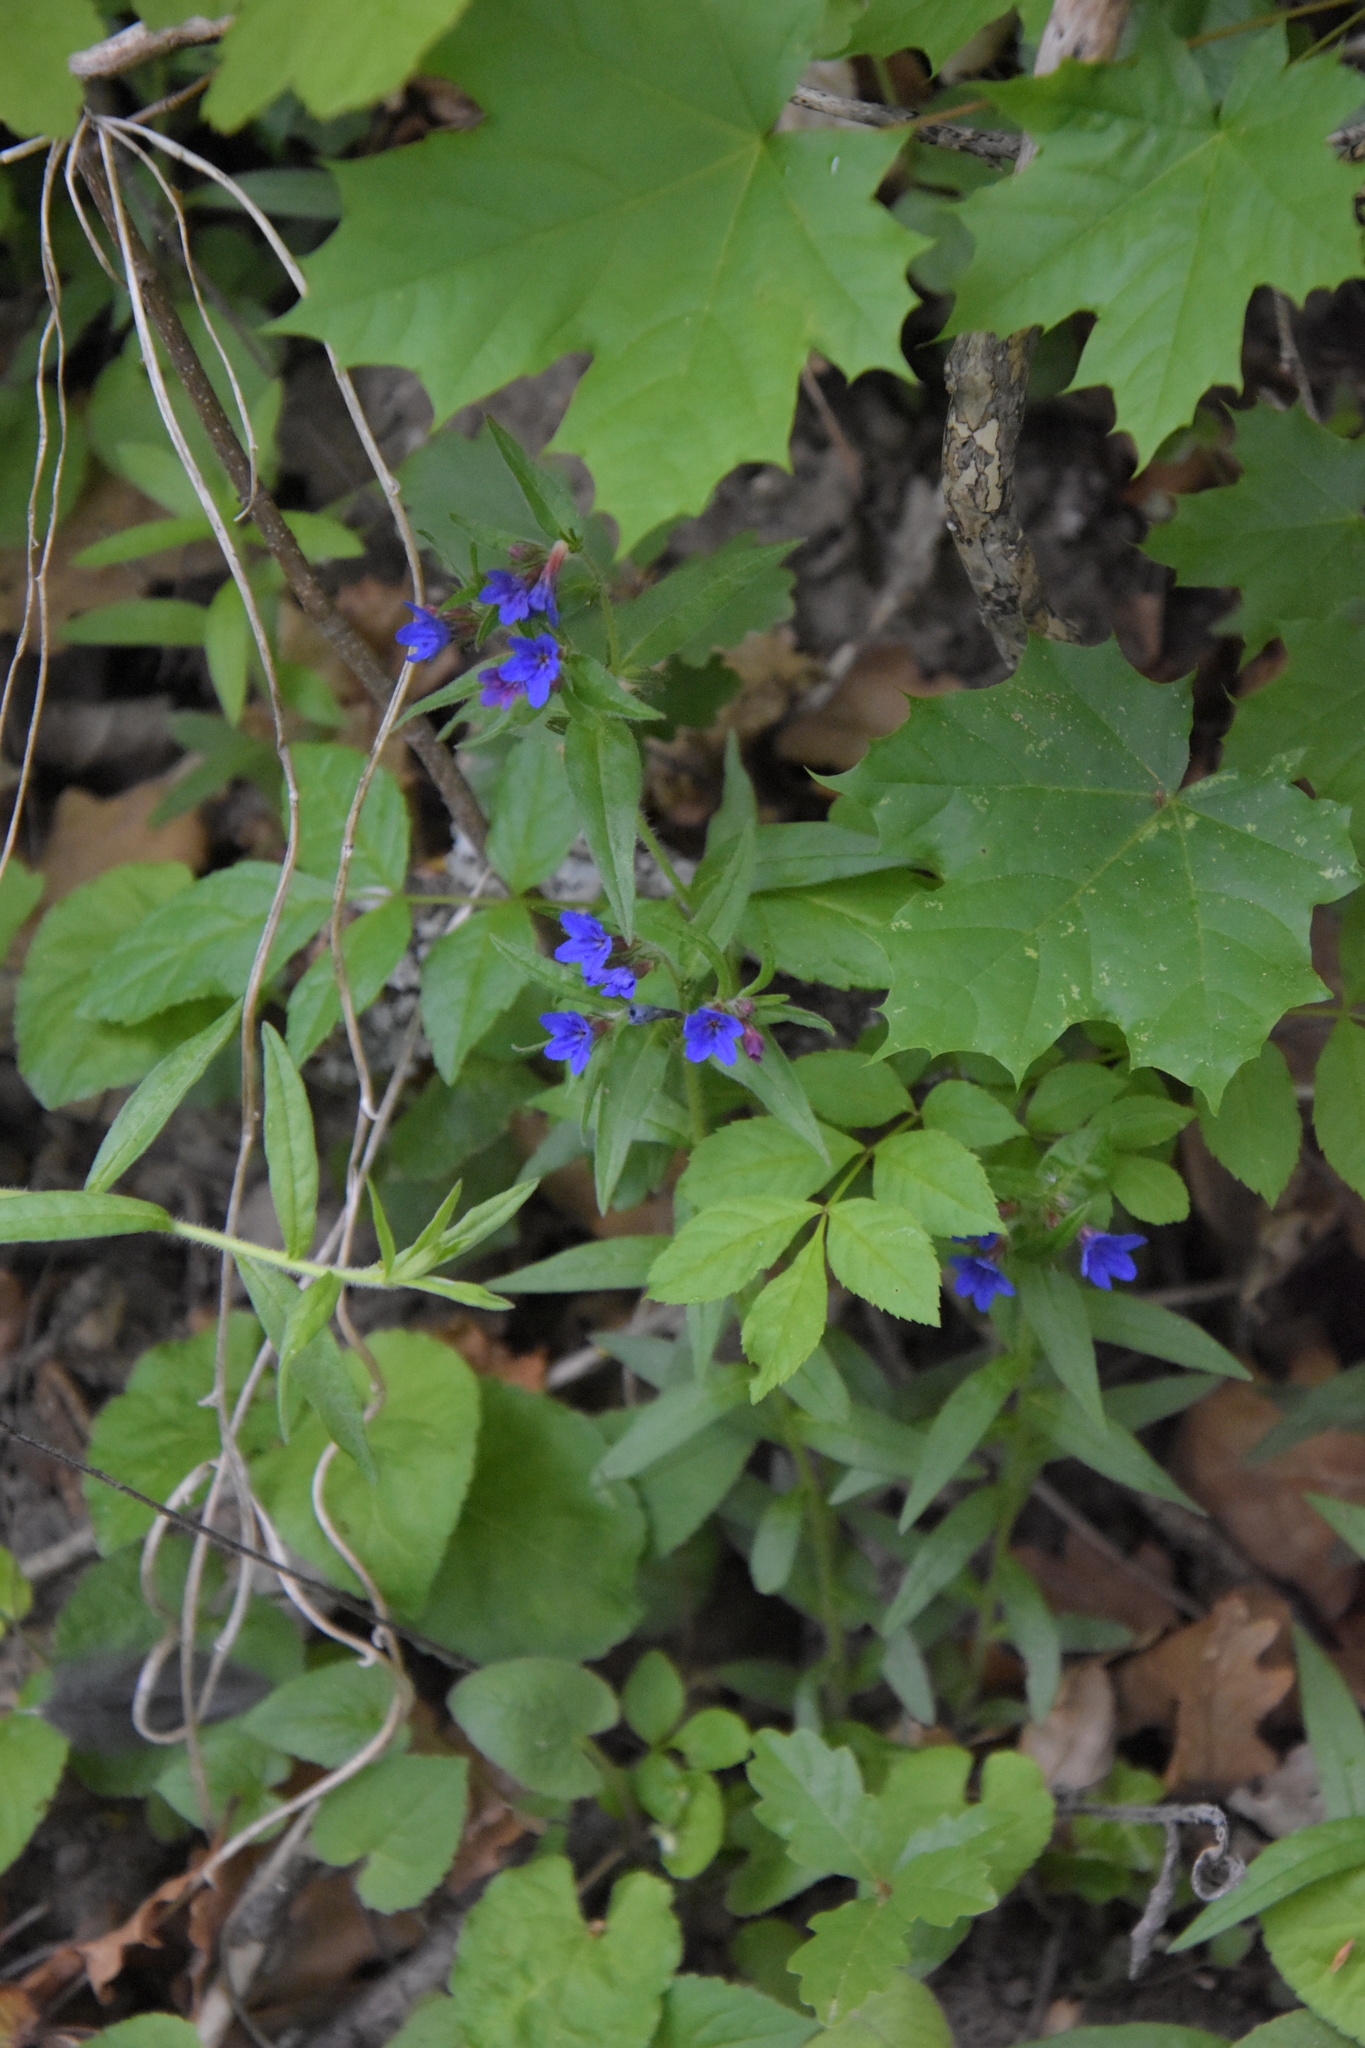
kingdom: Plantae
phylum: Tracheophyta
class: Magnoliopsida
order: Boraginales
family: Boraginaceae
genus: Aegonychon
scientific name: Aegonychon purpurocaeruleum
